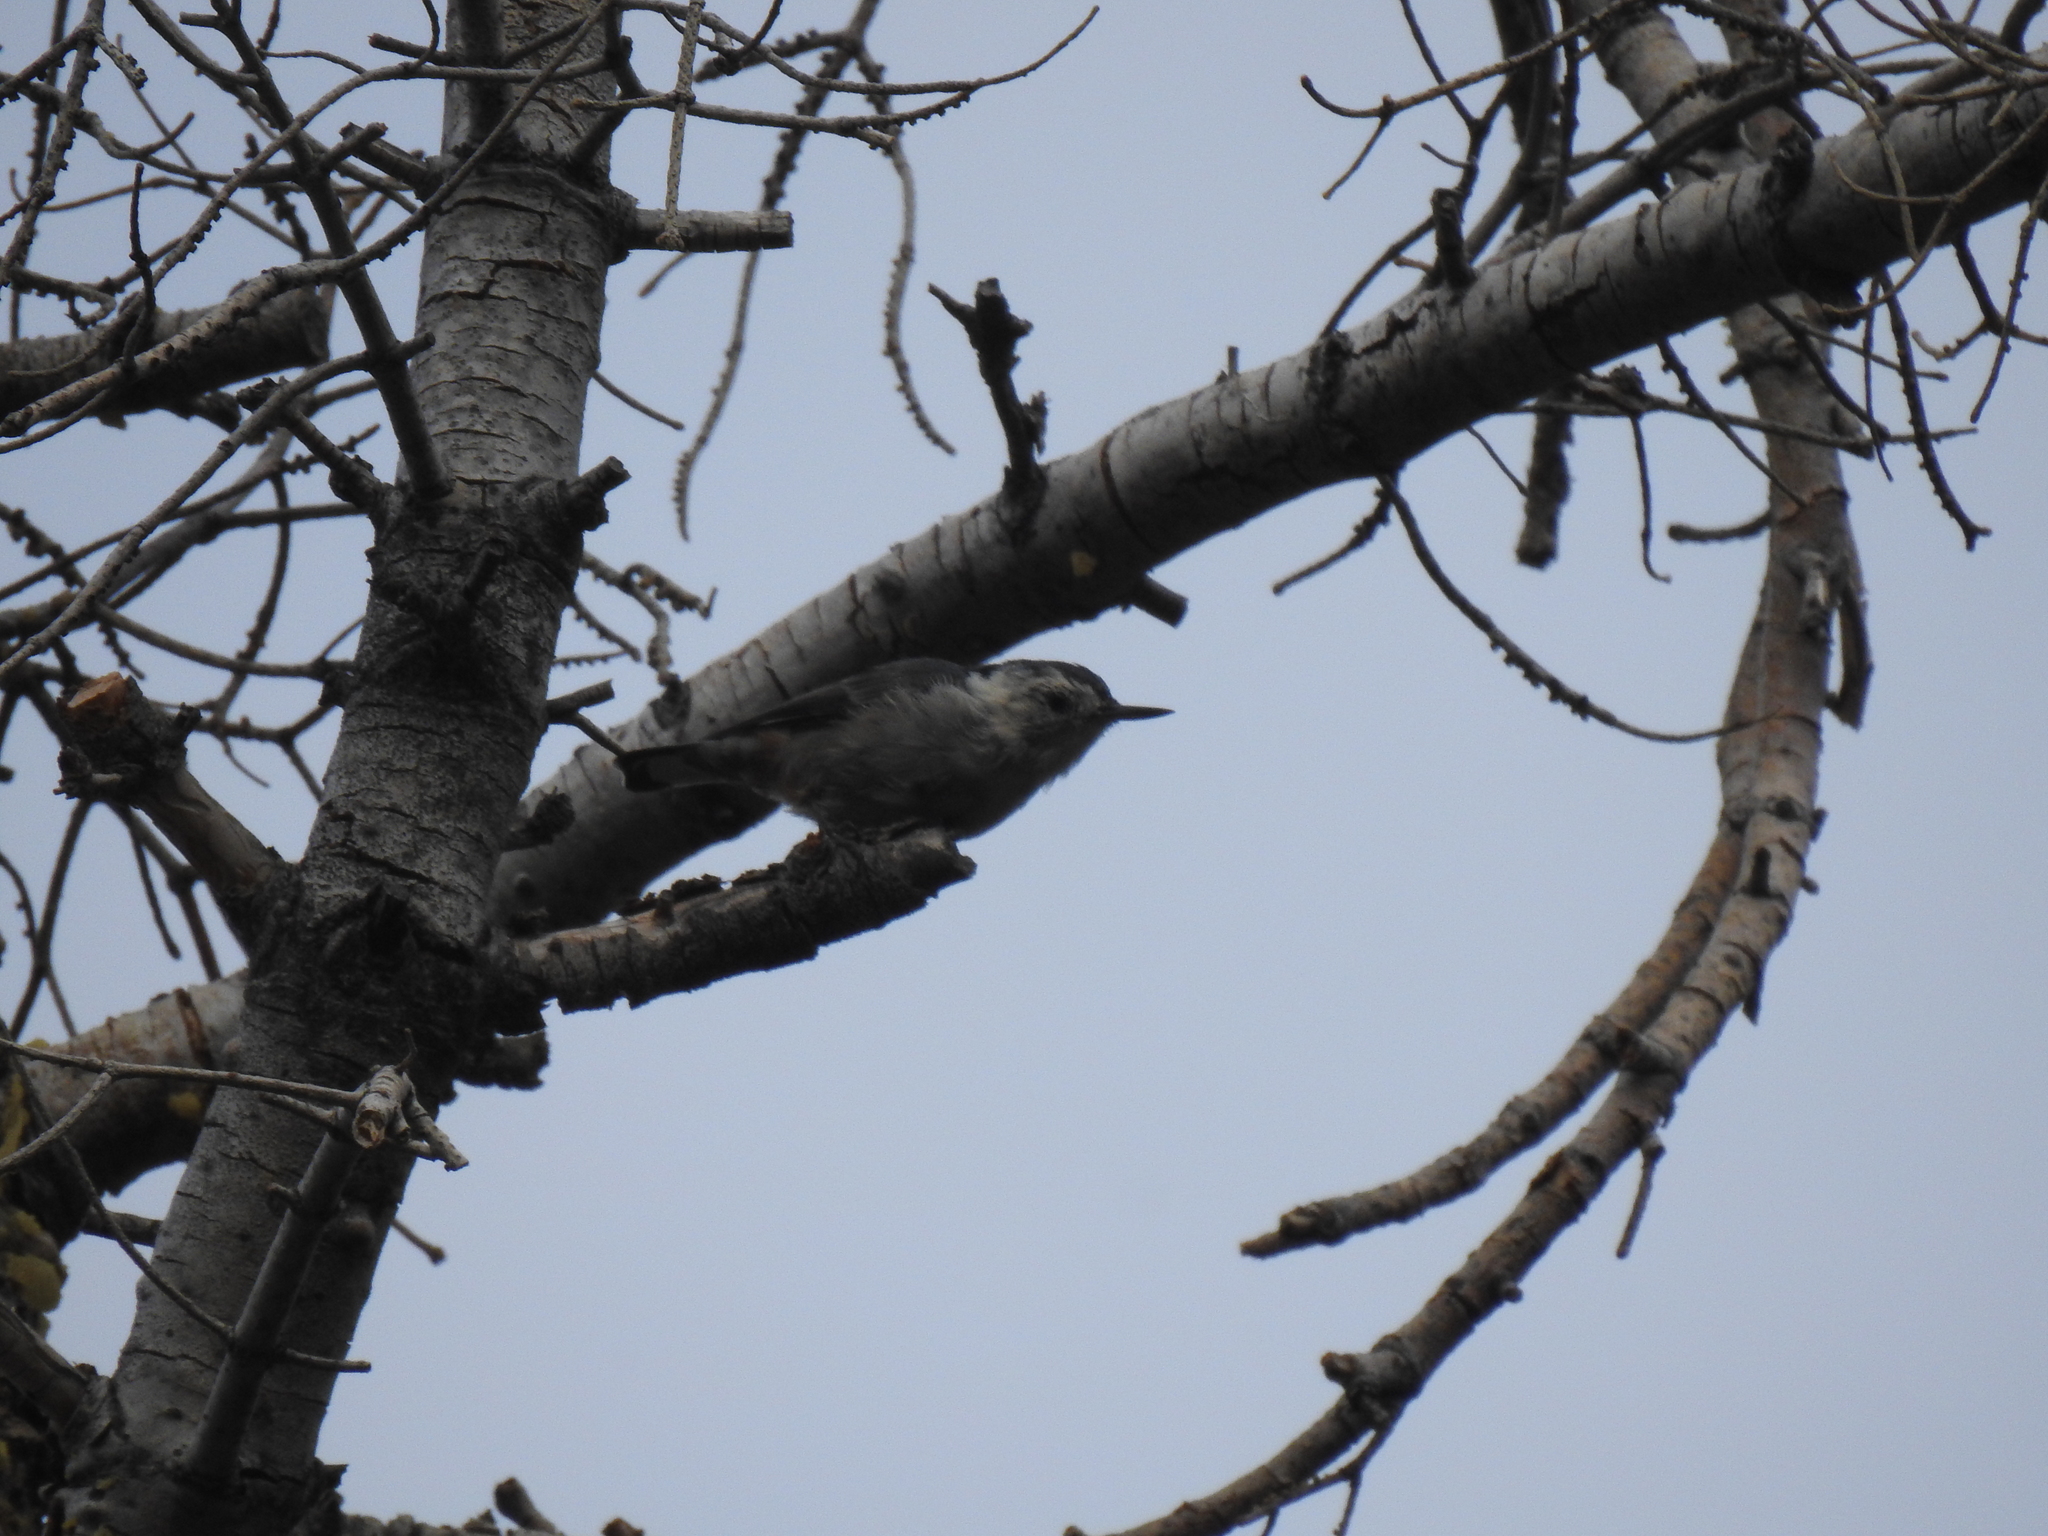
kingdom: Animalia
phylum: Chordata
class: Aves
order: Passeriformes
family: Sittidae
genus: Sitta
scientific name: Sitta carolinensis
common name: White-breasted nuthatch
